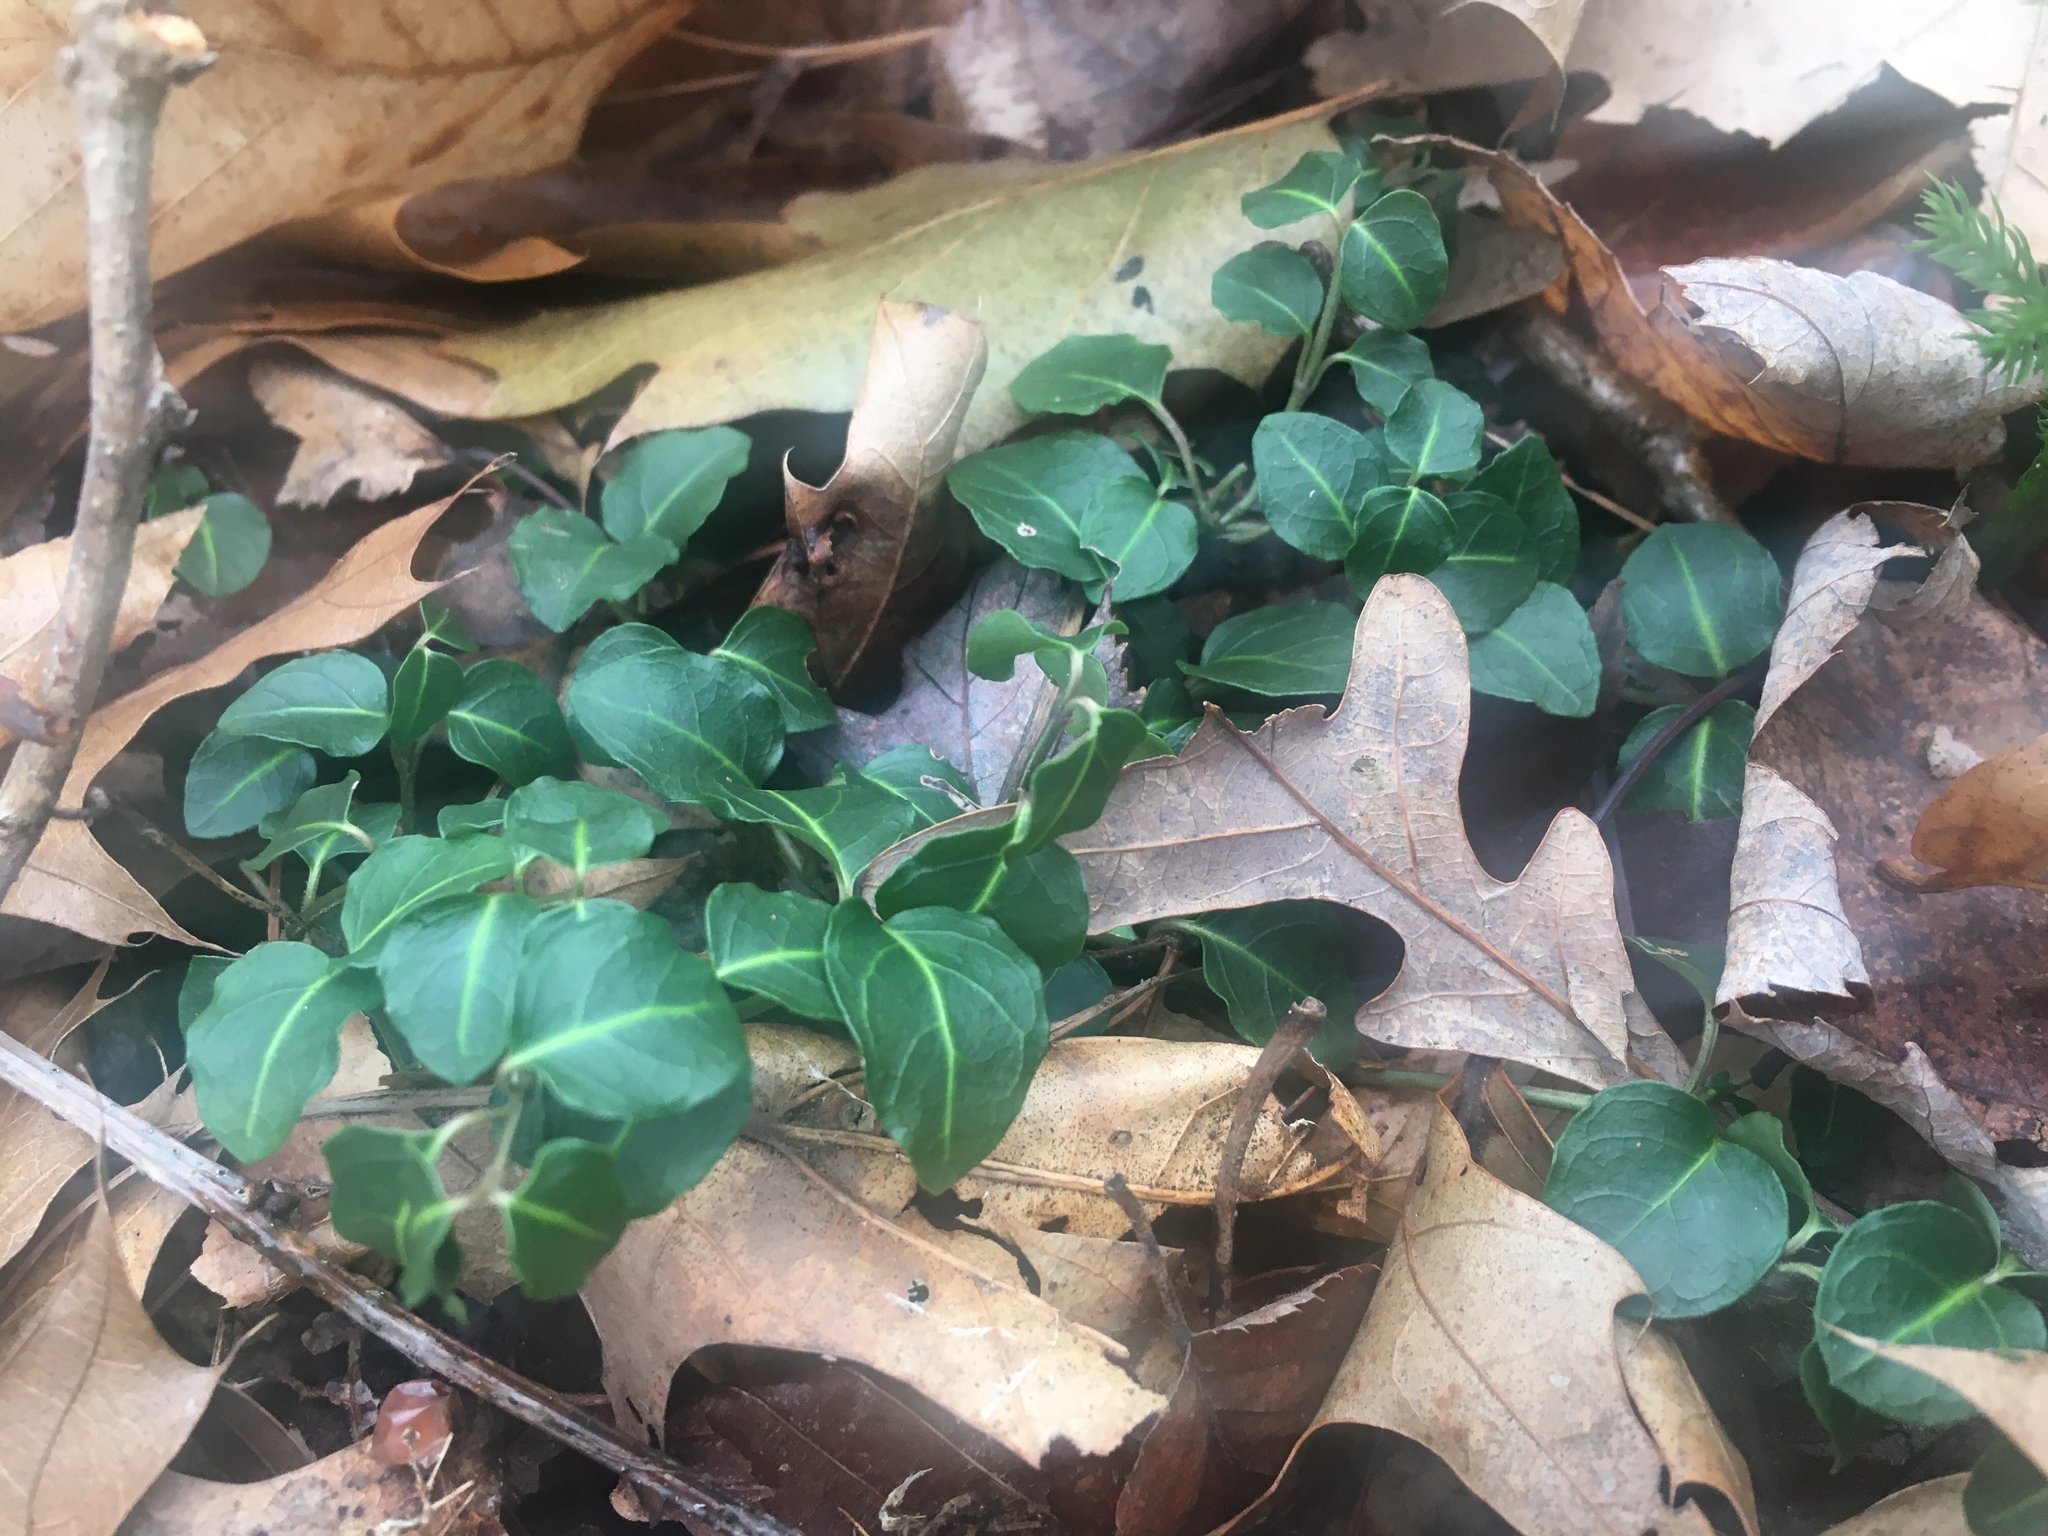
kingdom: Plantae
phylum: Tracheophyta
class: Magnoliopsida
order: Gentianales
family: Rubiaceae
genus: Mitchella
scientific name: Mitchella repens
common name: Partridge-berry
